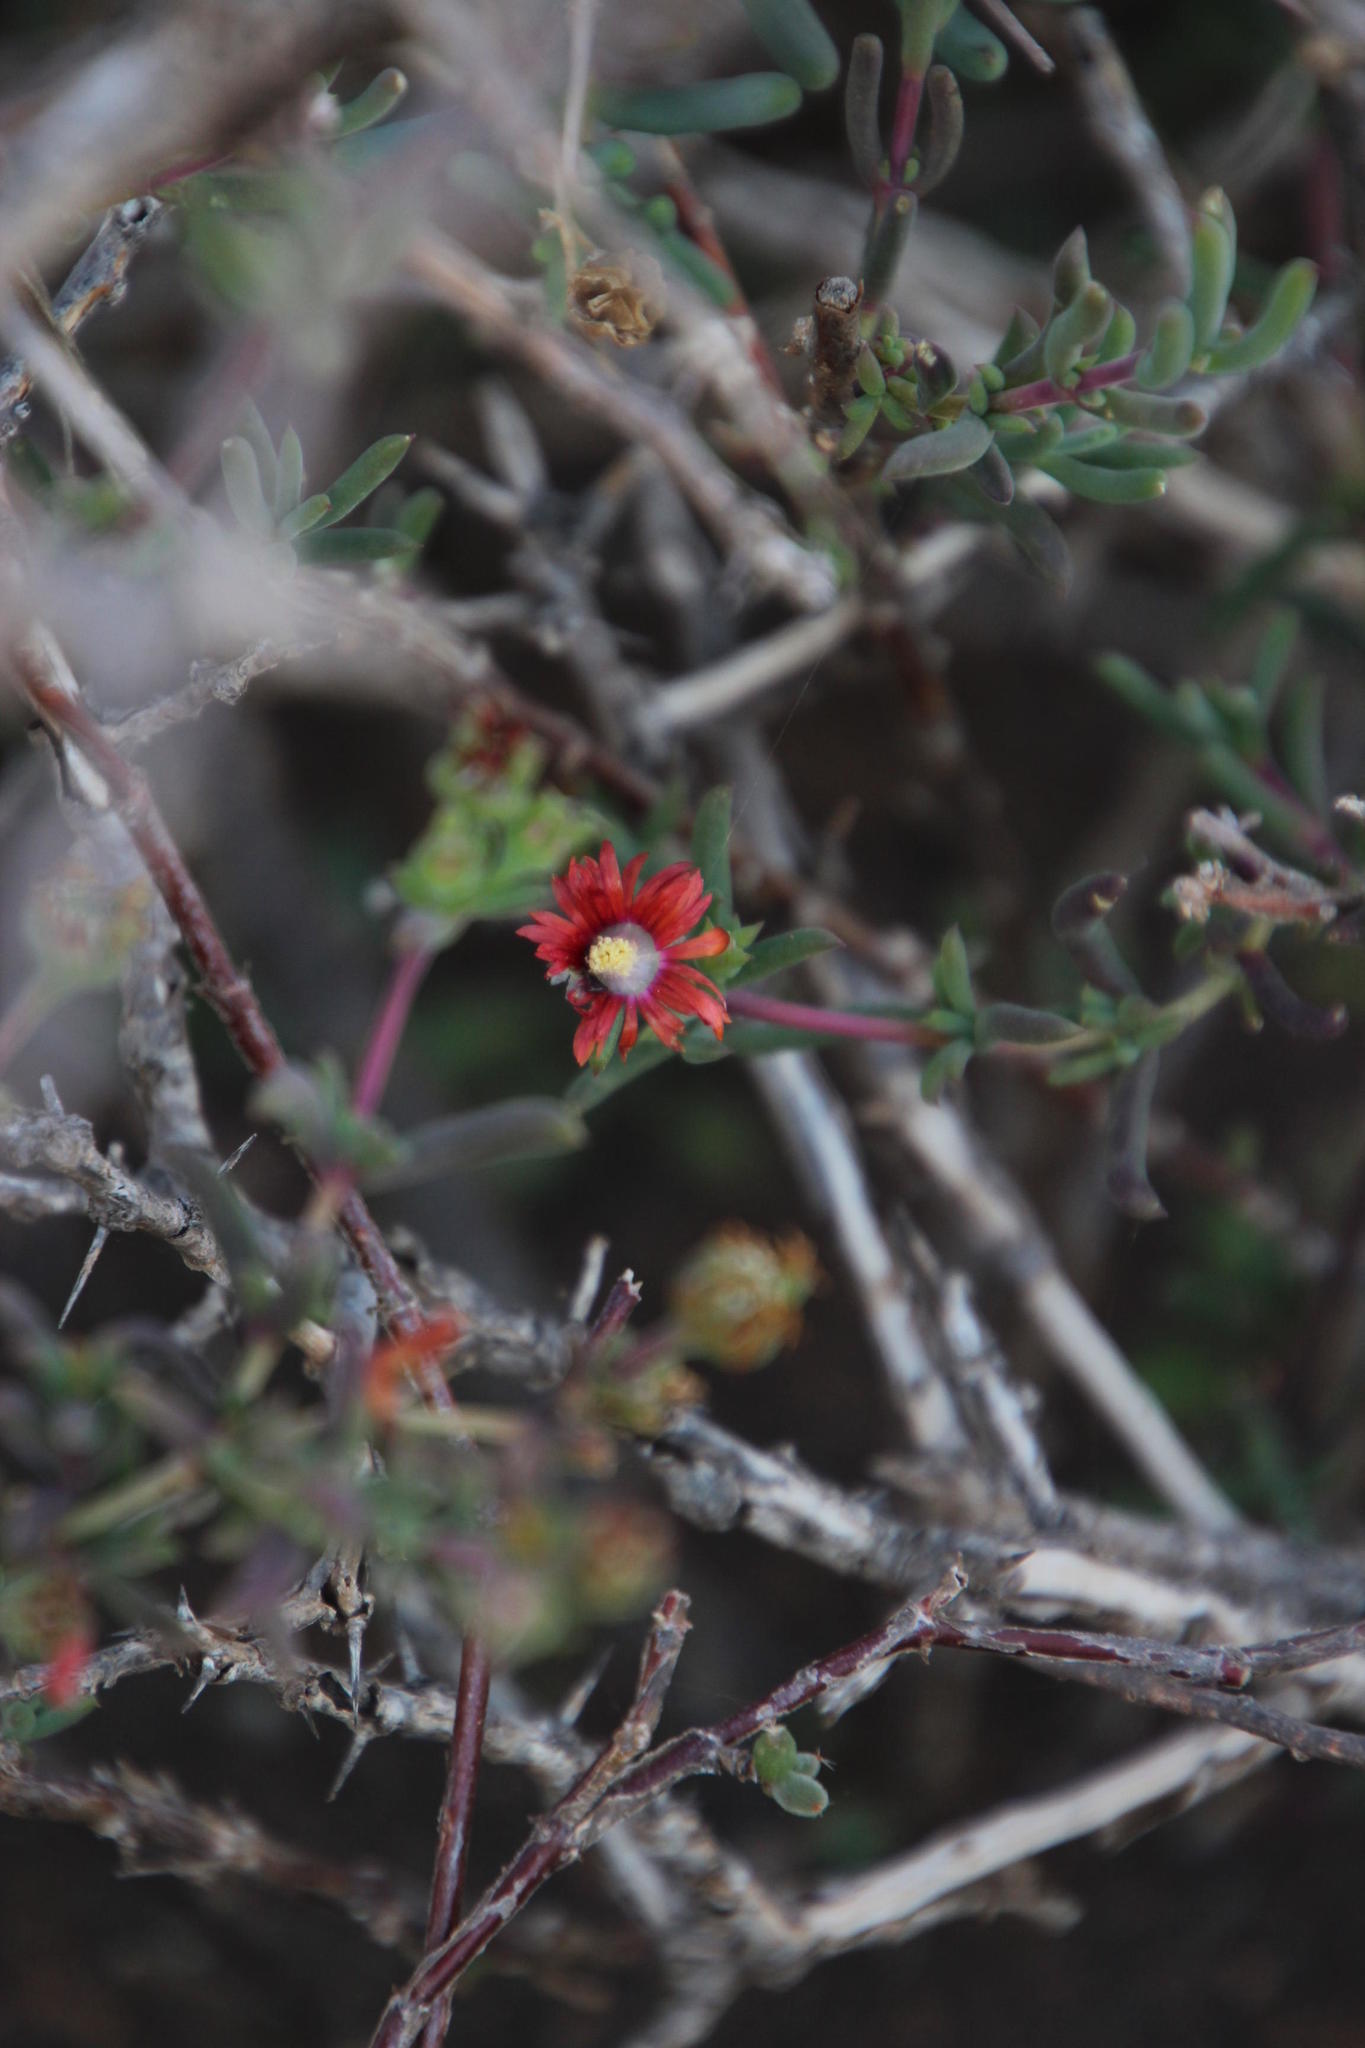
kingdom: Plantae
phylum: Tracheophyta
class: Magnoliopsida
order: Caryophyllales
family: Aizoaceae
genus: Delosperma
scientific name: Delosperma multiflorum
